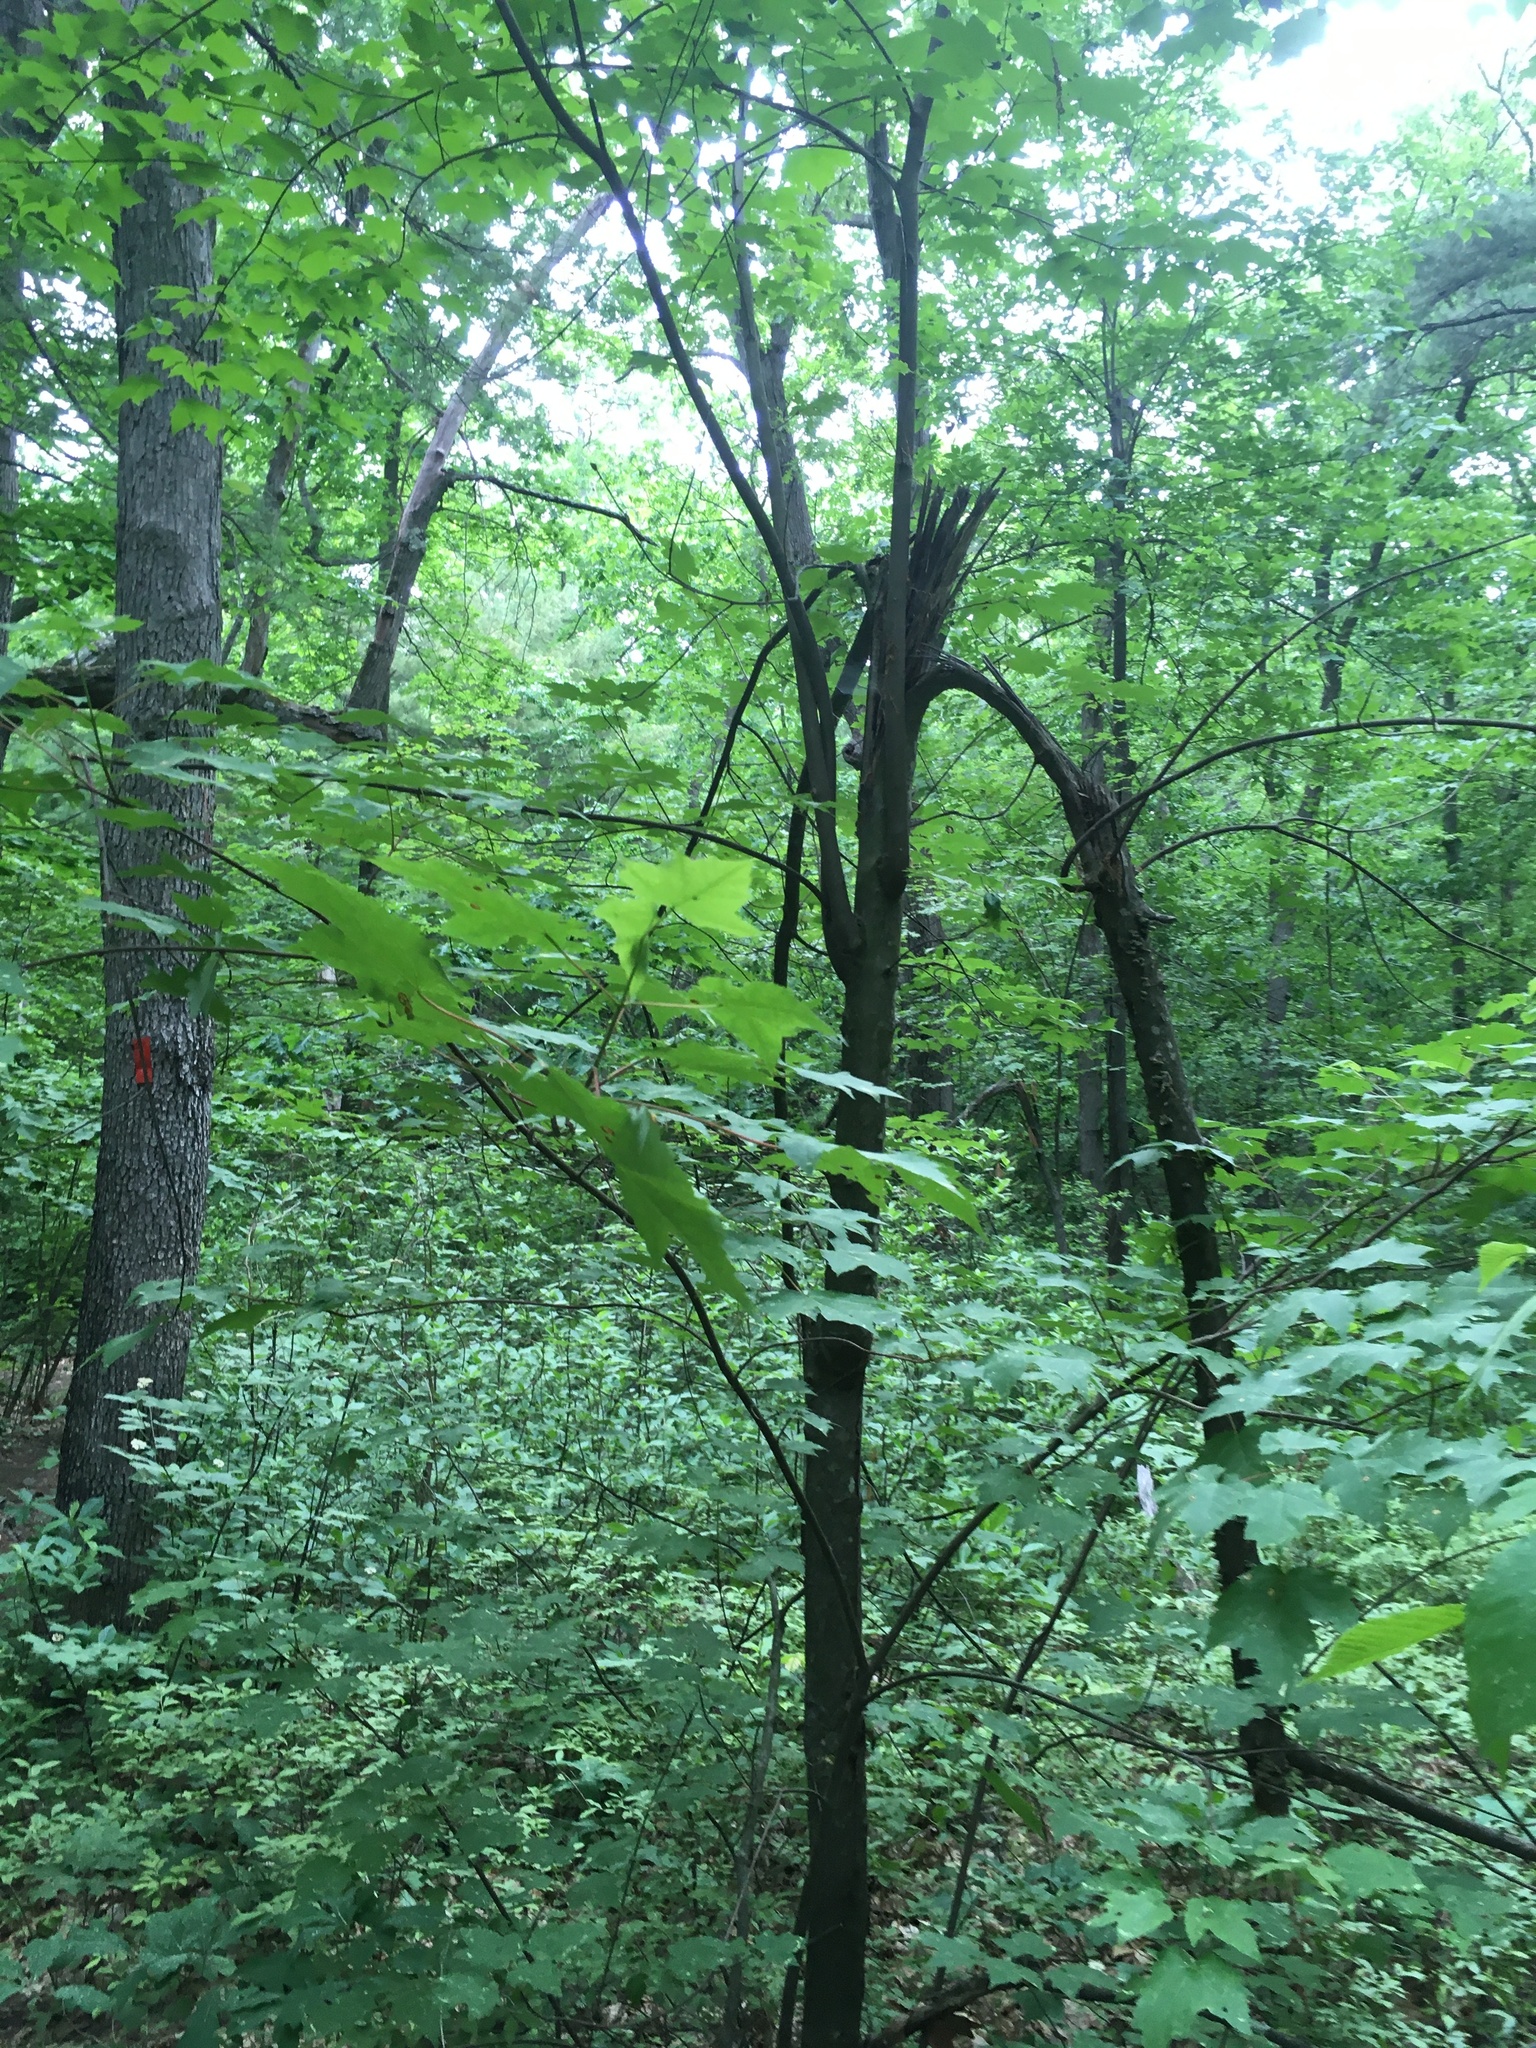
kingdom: Plantae
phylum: Tracheophyta
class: Magnoliopsida
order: Sapindales
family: Sapindaceae
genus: Acer
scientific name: Acer rubrum
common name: Red maple
